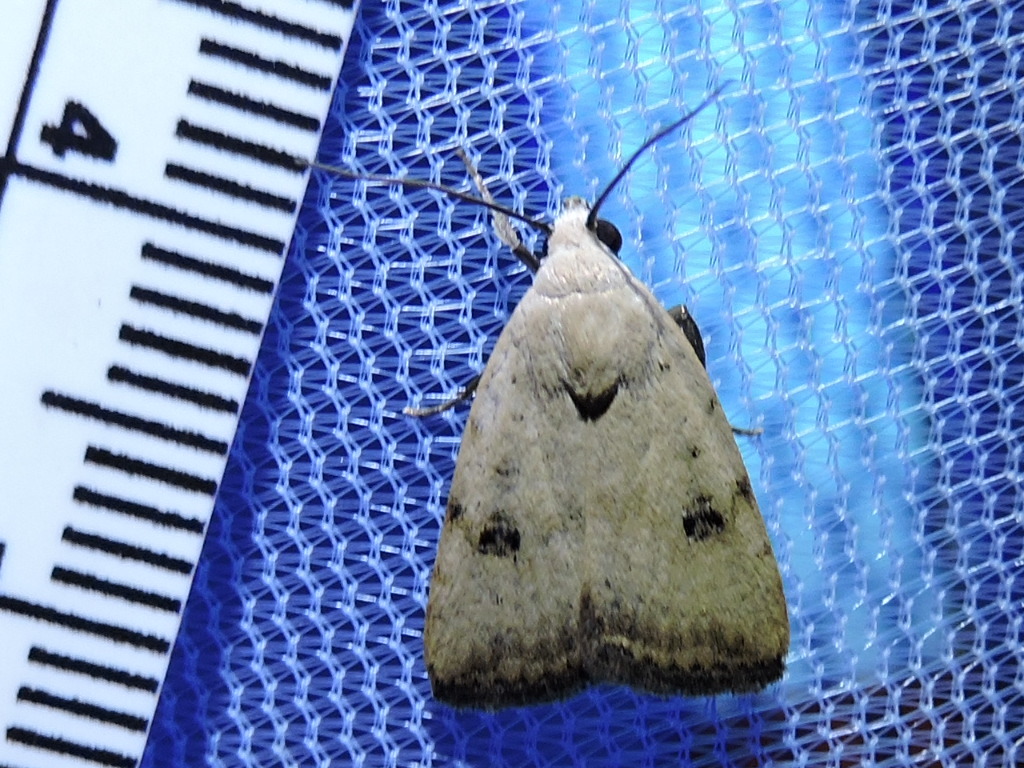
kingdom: Animalia
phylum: Arthropoda
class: Insecta
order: Lepidoptera
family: Noctuidae
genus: Micrathetis
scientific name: Micrathetis triplex
